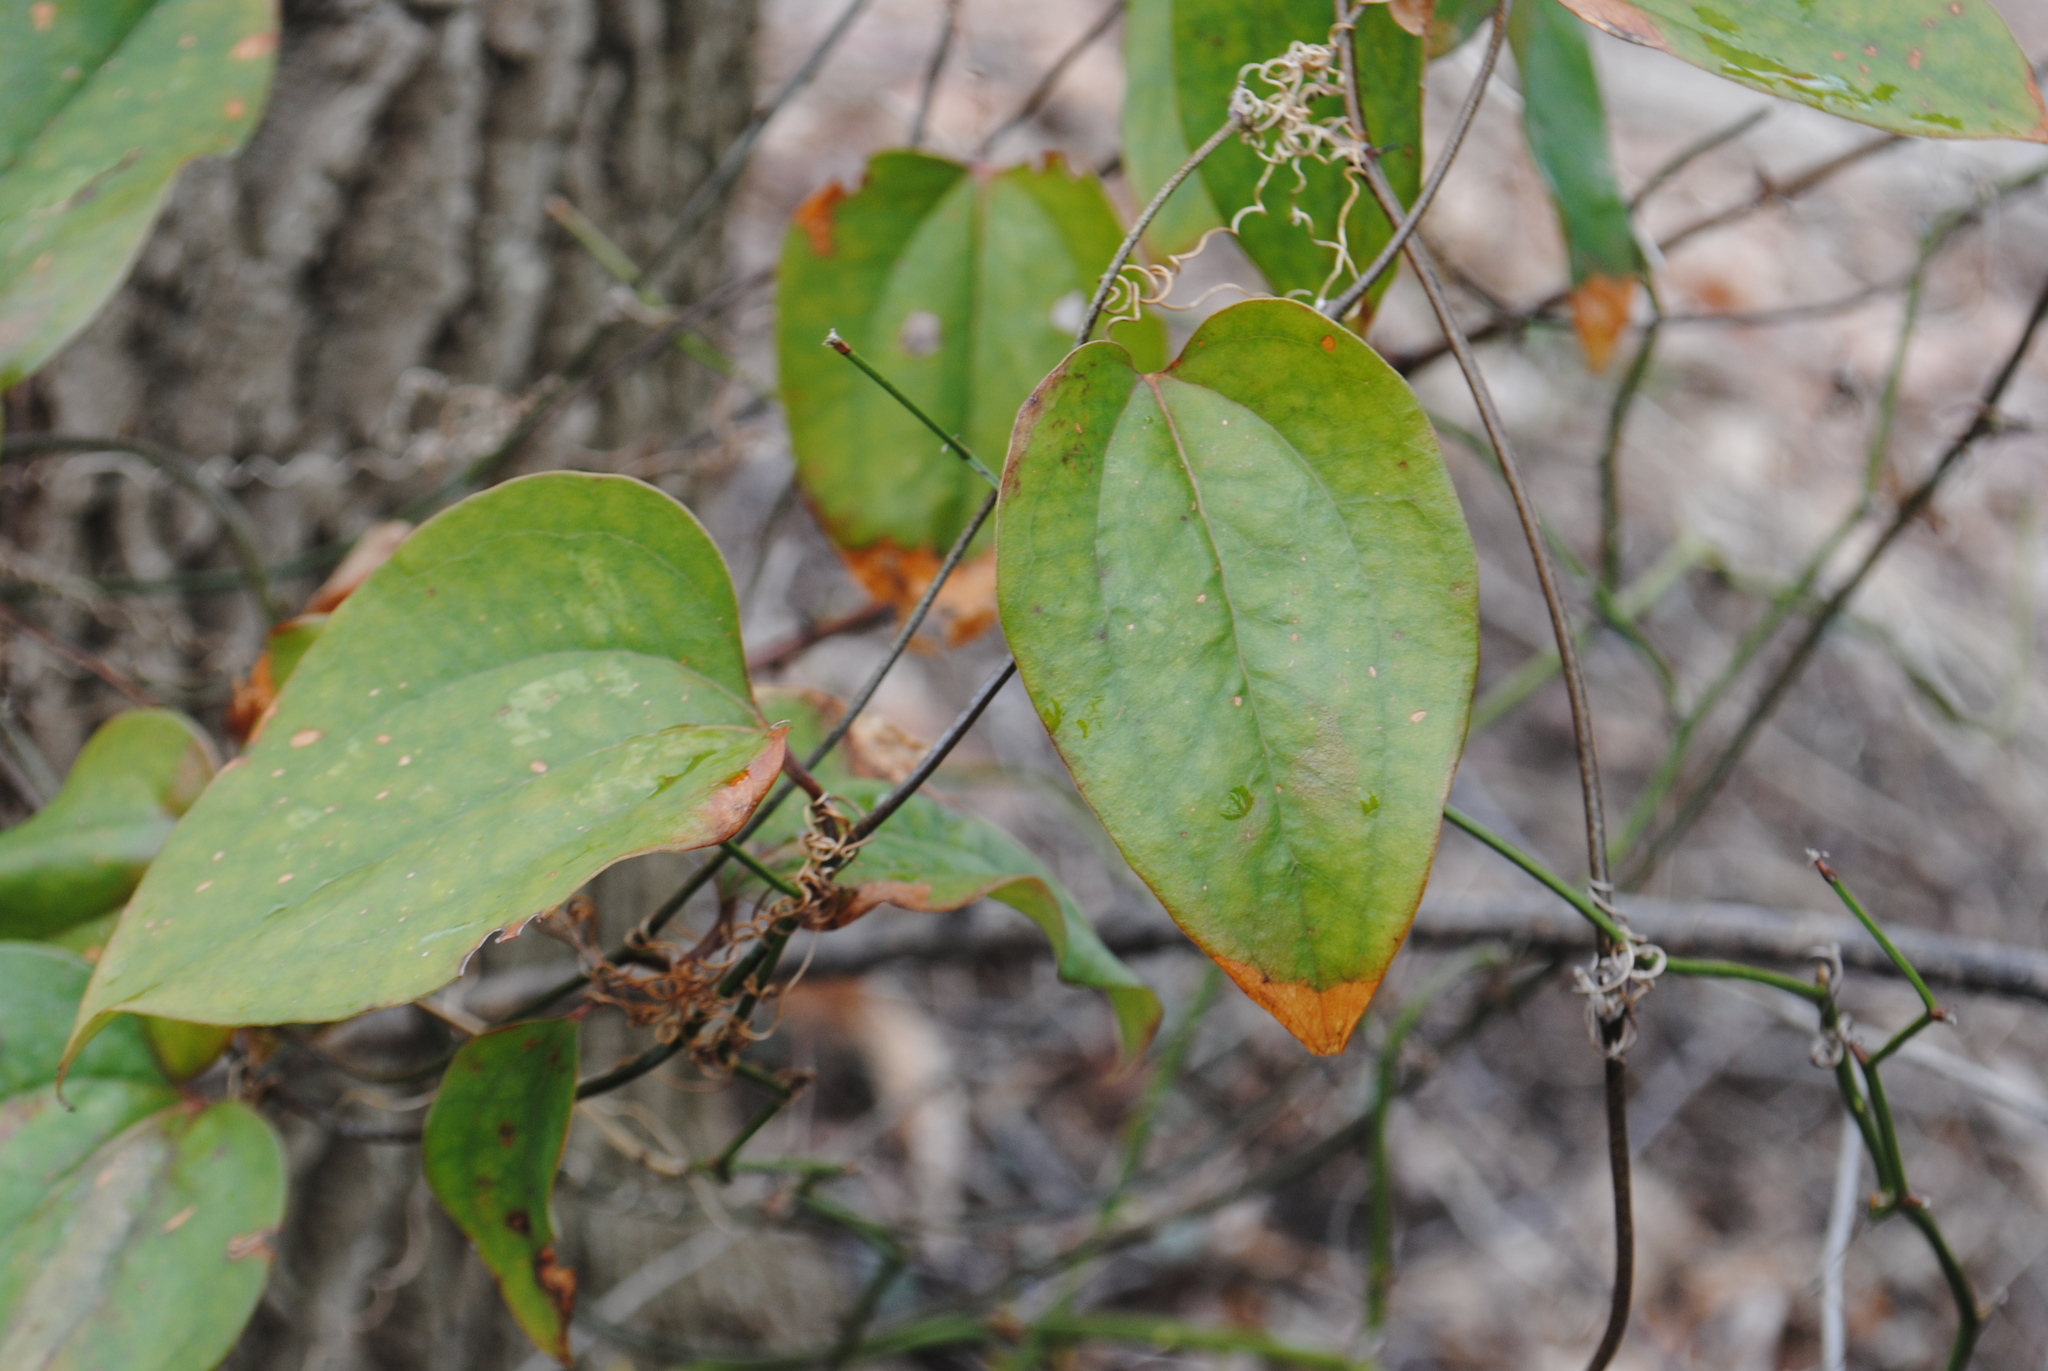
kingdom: Plantae
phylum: Tracheophyta
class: Liliopsida
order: Liliales
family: Smilacaceae
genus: Smilax
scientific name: Smilax glauca
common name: Cat greenbrier
